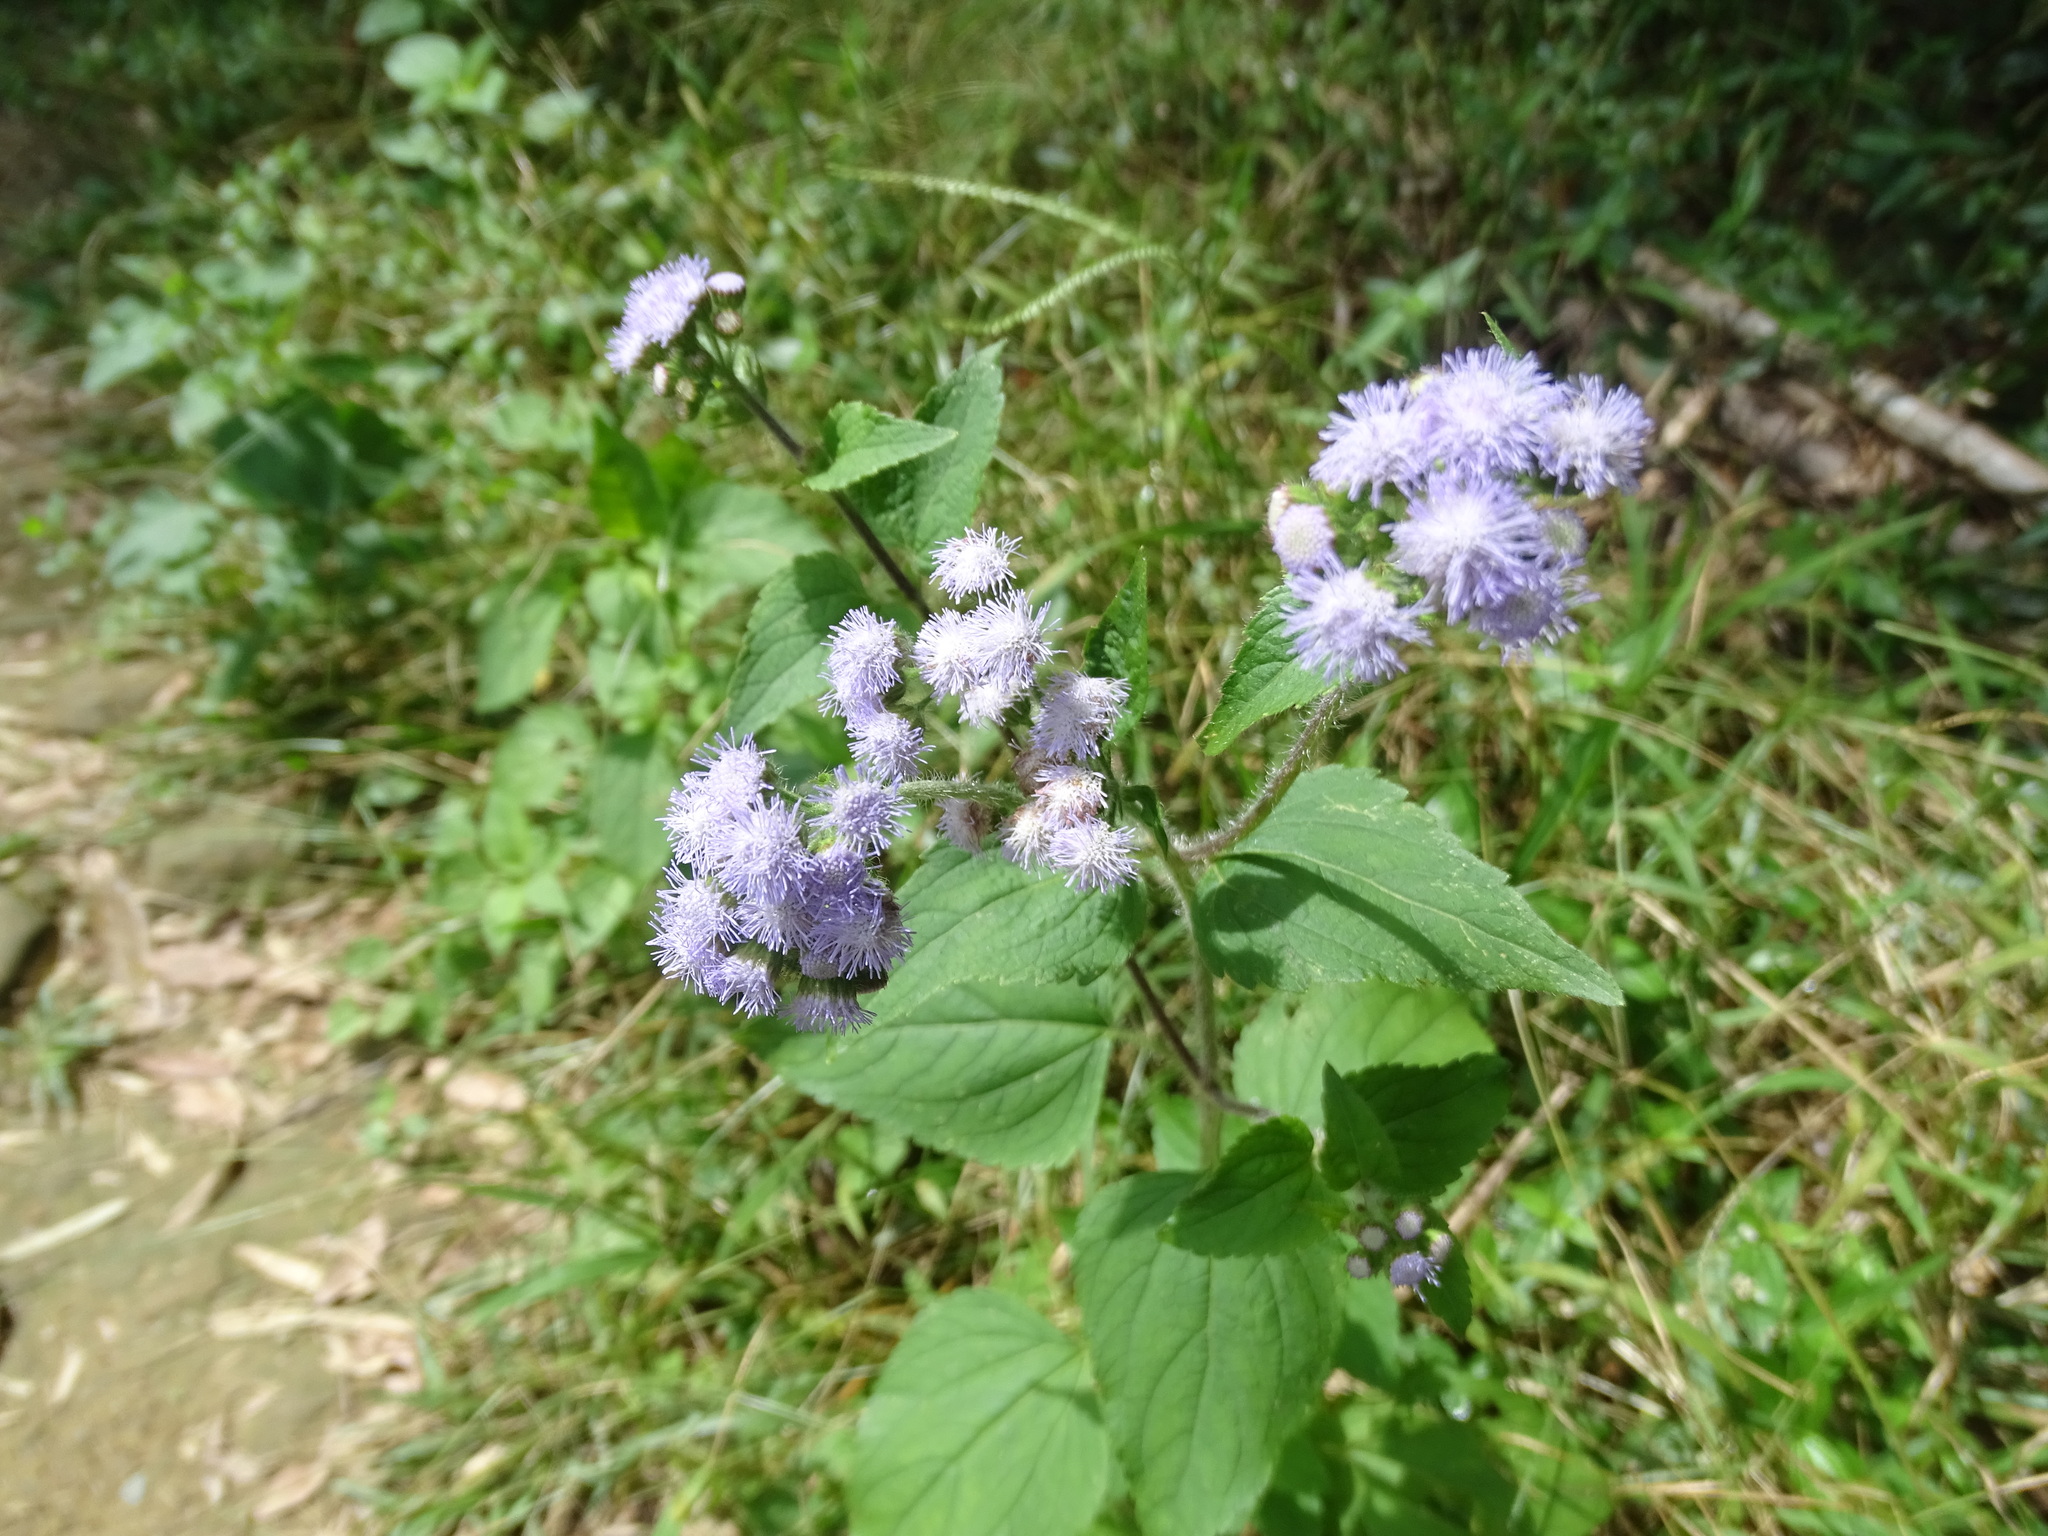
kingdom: Plantae
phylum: Tracheophyta
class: Magnoliopsida
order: Asterales
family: Asteraceae
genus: Ageratum
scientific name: Ageratum houstonianum
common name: Bluemink
